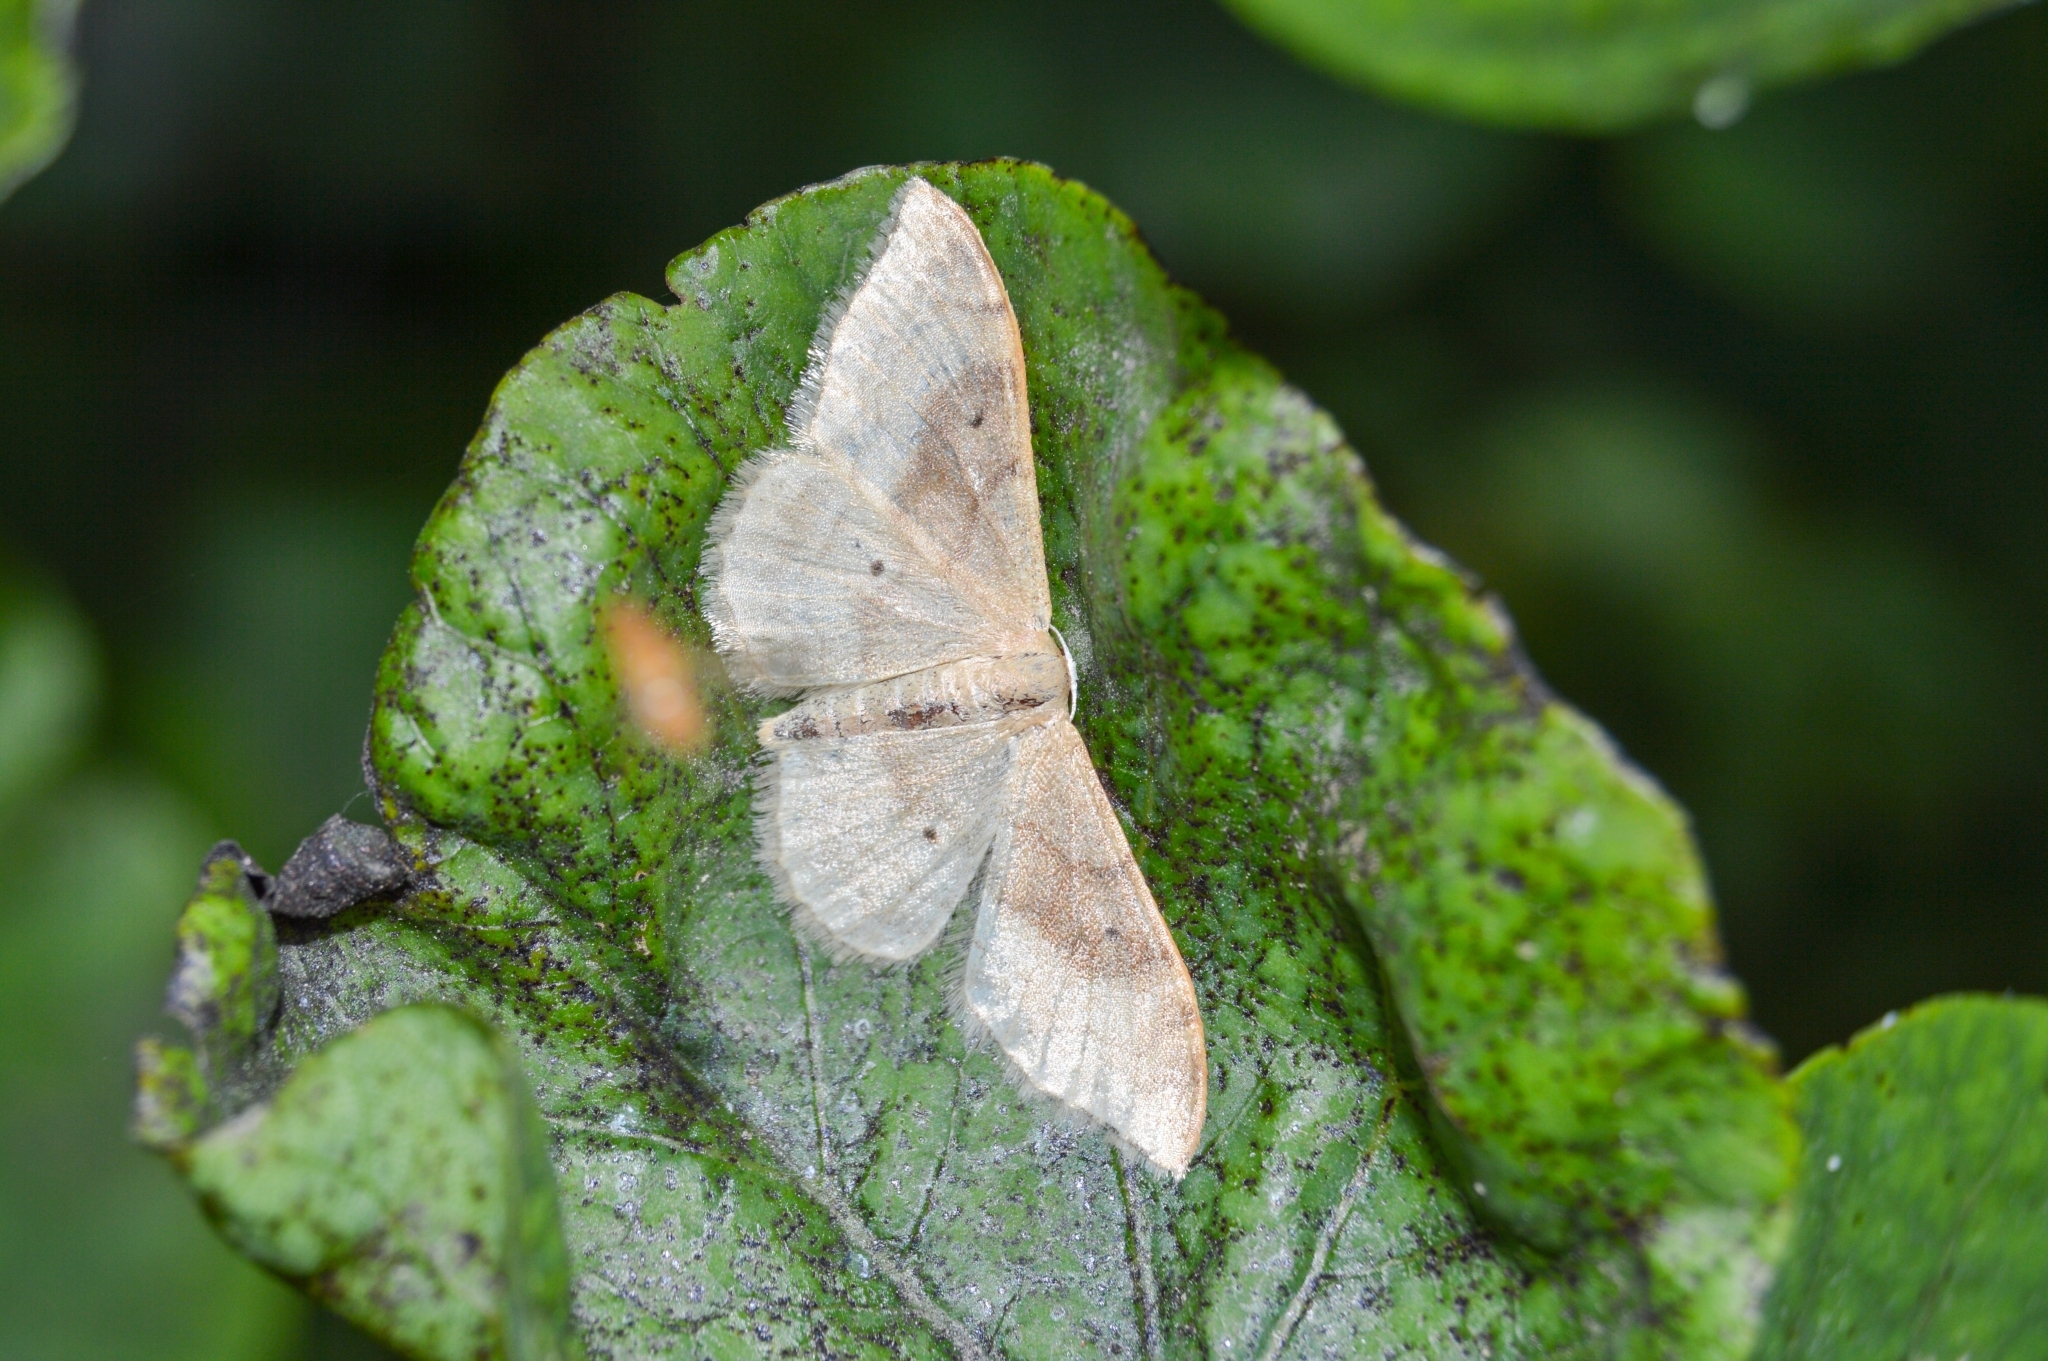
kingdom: Animalia
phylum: Arthropoda
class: Insecta
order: Lepidoptera
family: Geometridae
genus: Idaea
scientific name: Idaea degeneraria
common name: Portland ribbon wave
